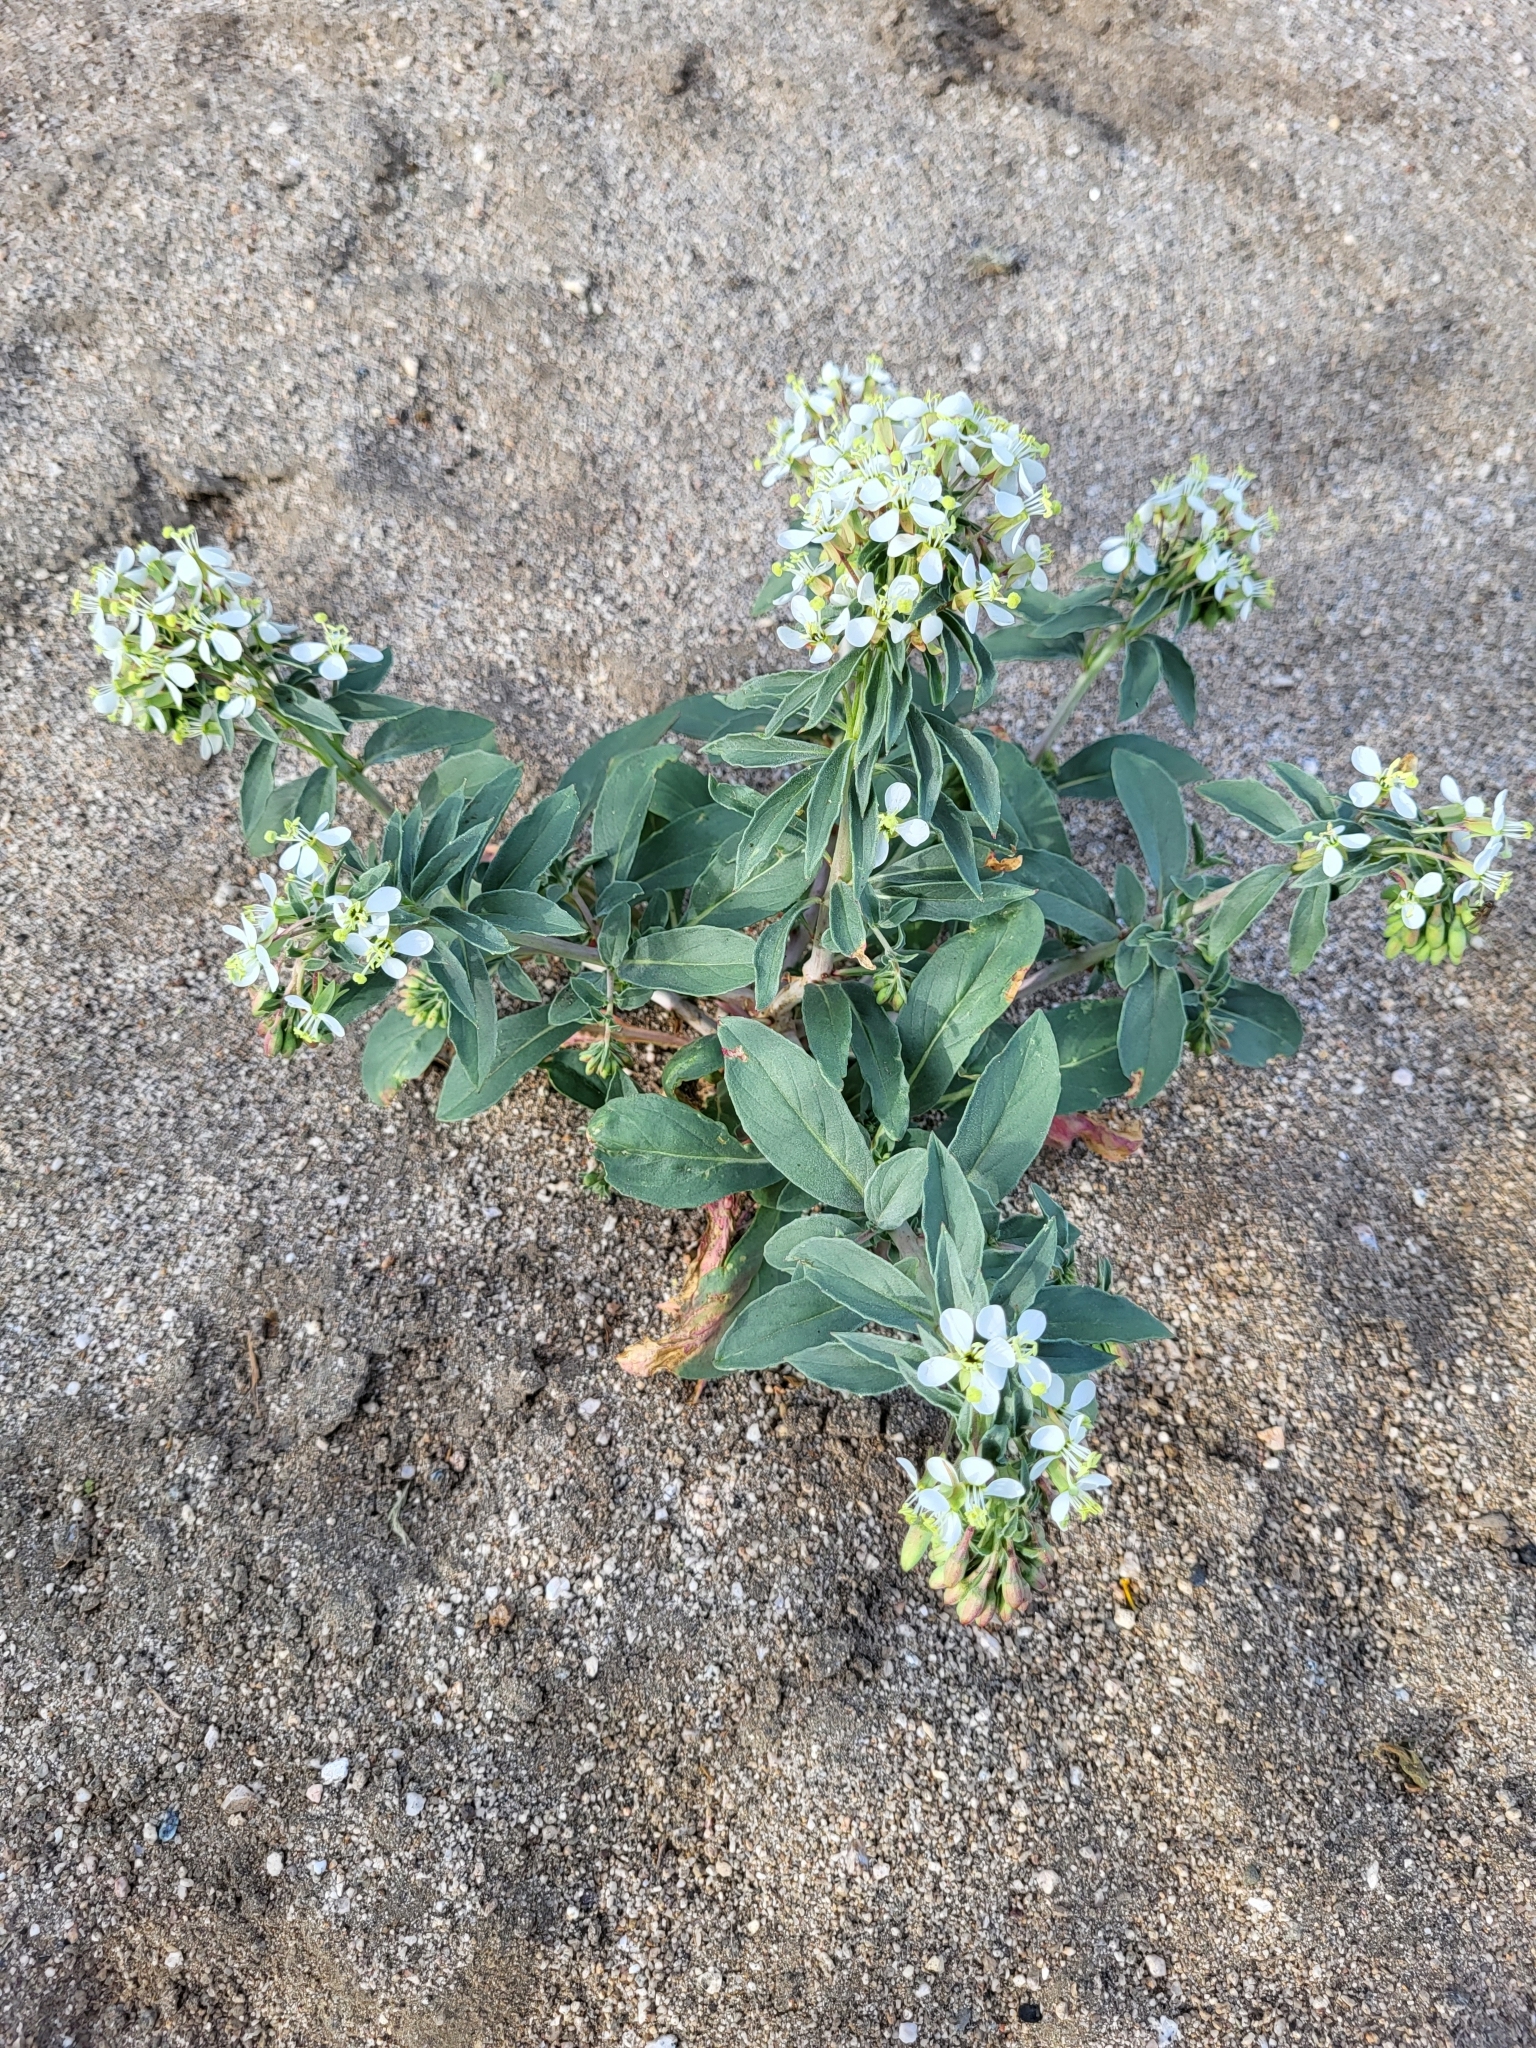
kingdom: Plantae
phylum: Tracheophyta
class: Magnoliopsida
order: Myrtales
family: Onagraceae
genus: Eremothera
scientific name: Eremothera boothii
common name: Booth's evening primrose
